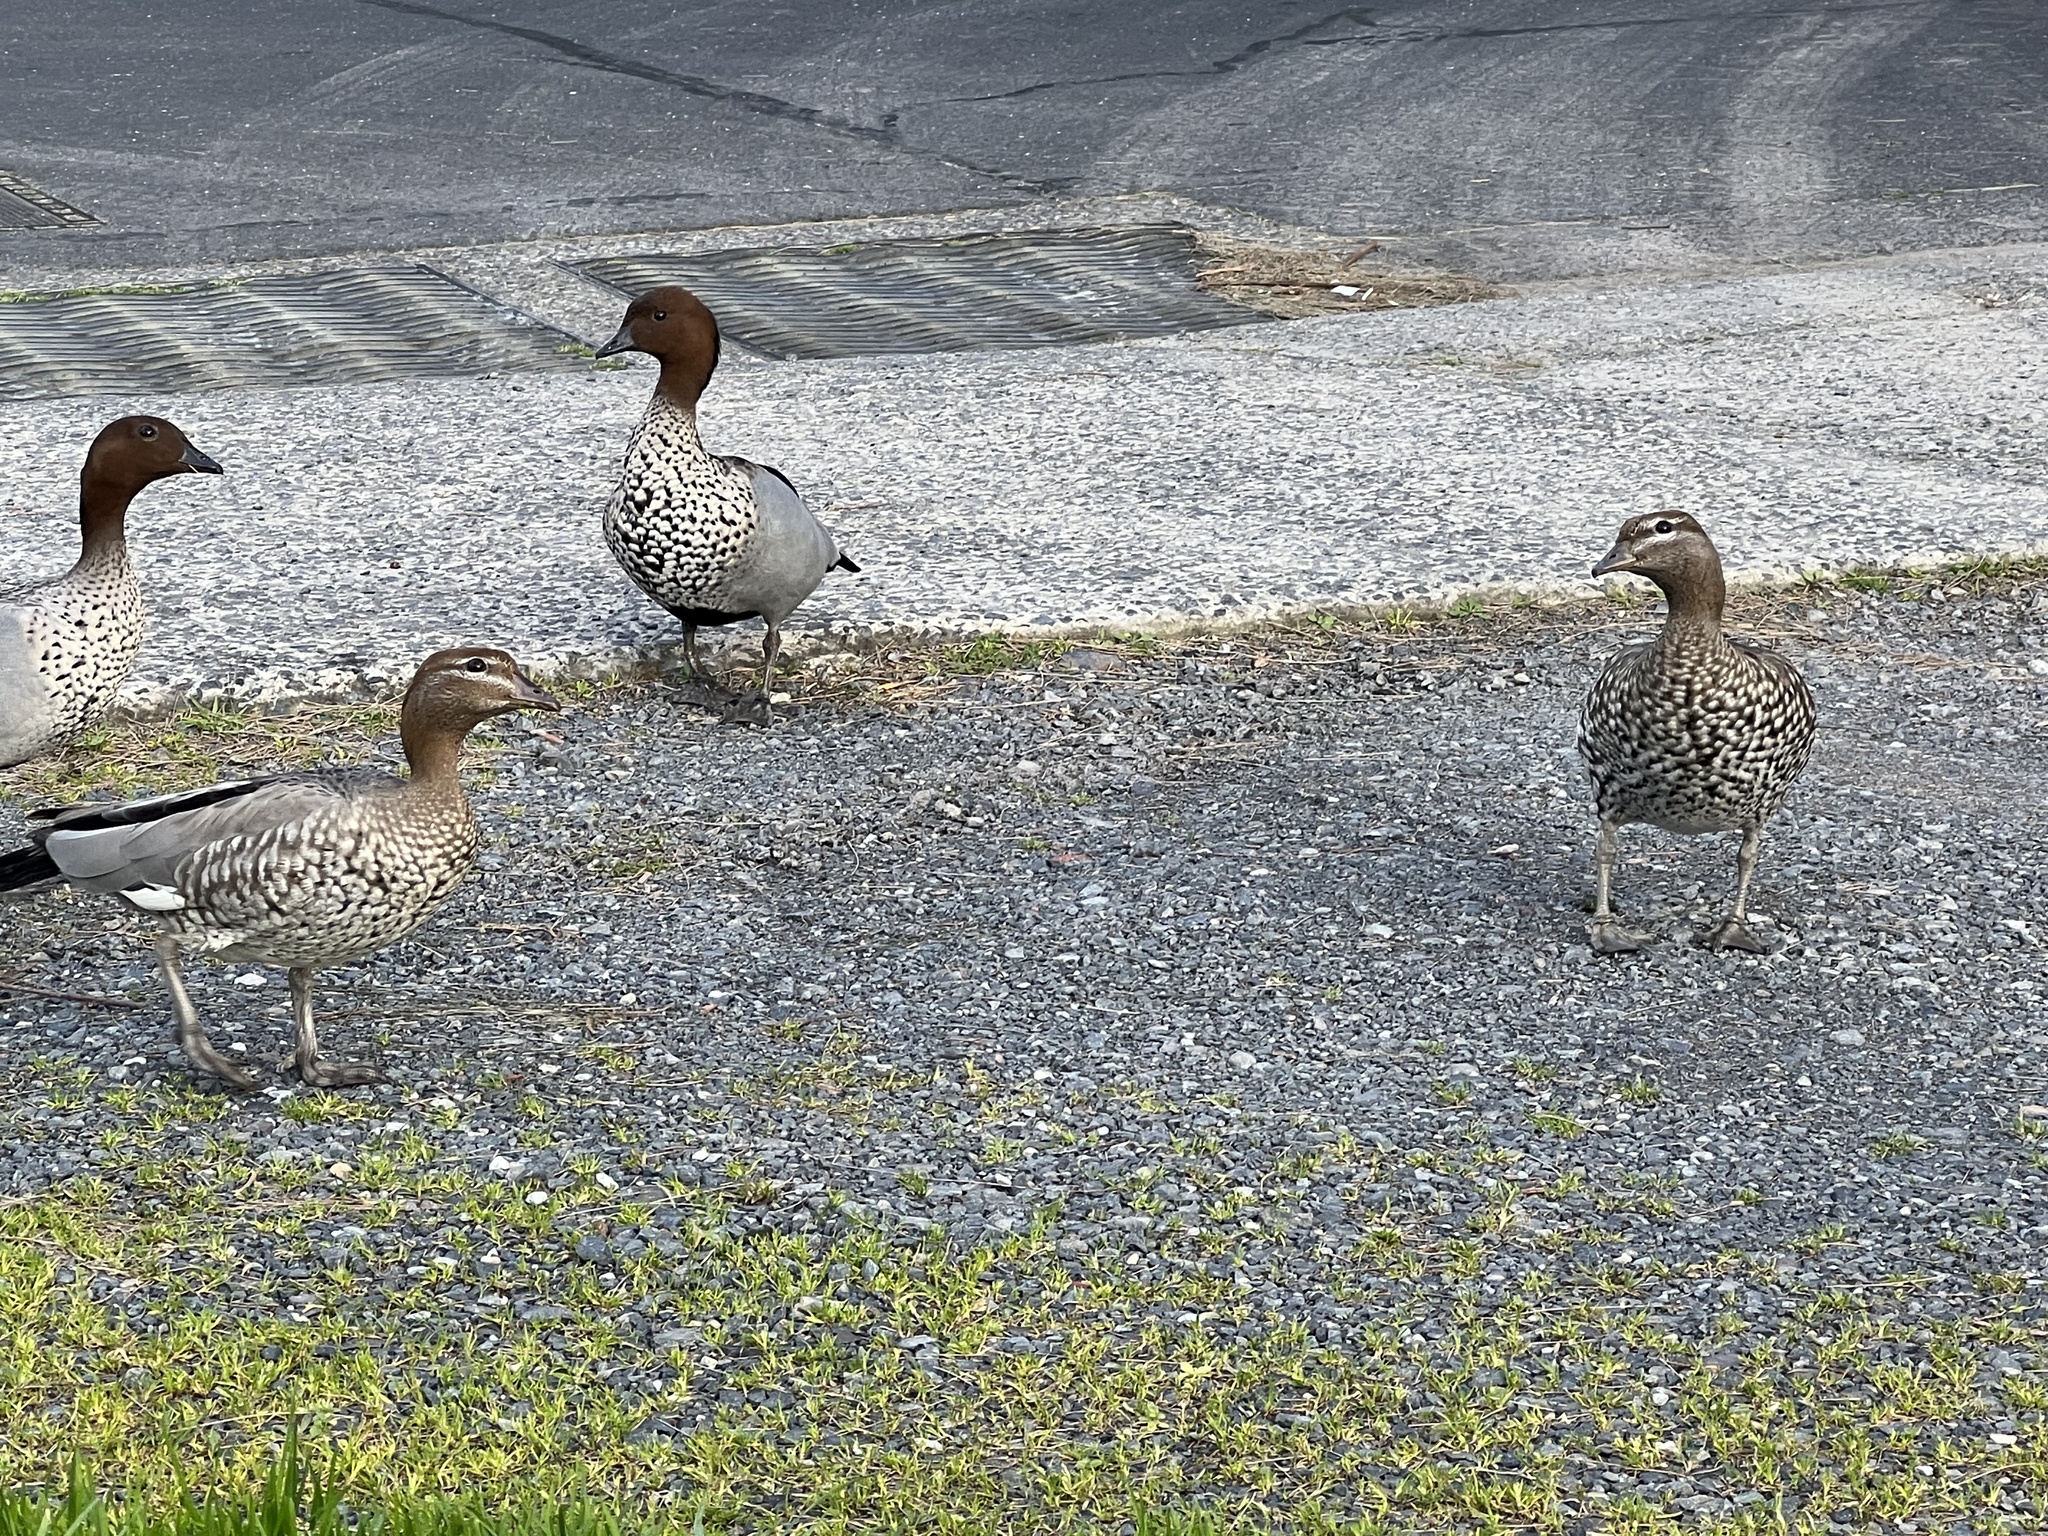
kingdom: Animalia
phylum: Chordata
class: Aves
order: Anseriformes
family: Anatidae
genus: Chenonetta
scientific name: Chenonetta jubata
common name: Maned duck
